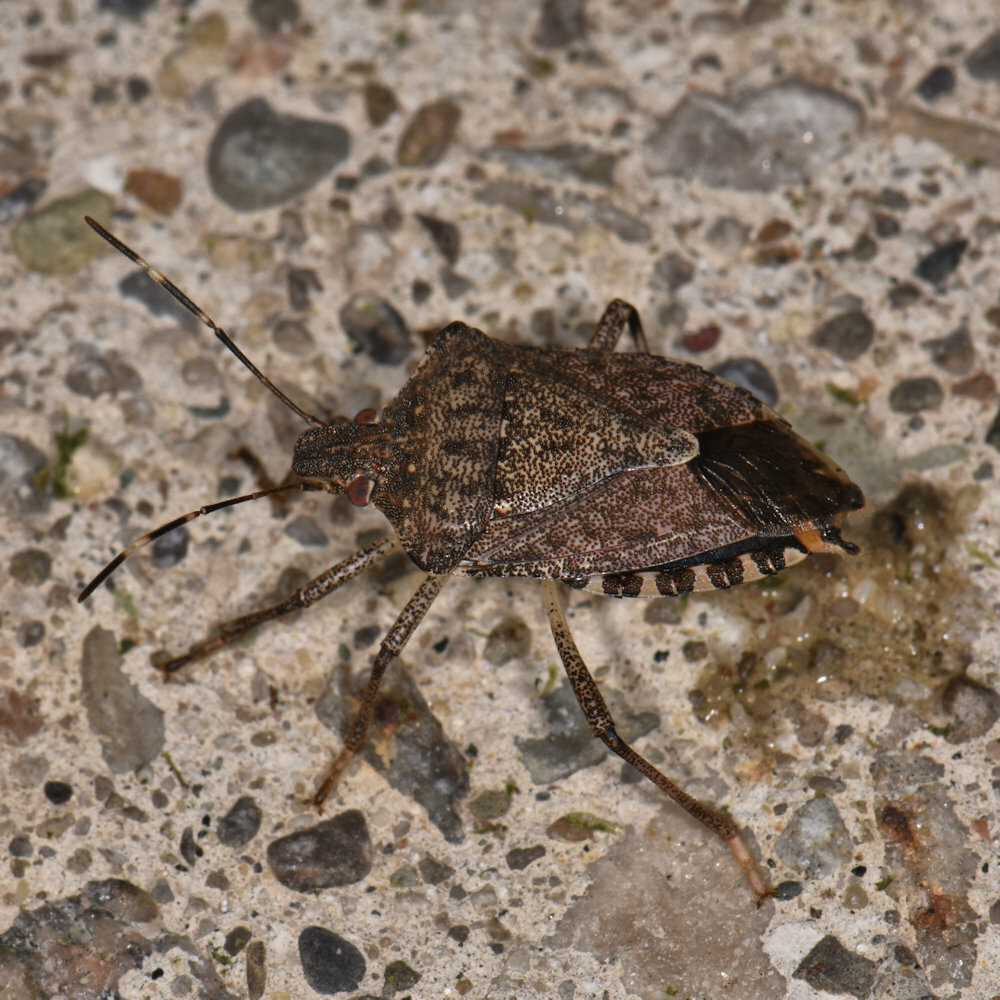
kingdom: Animalia
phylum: Arthropoda
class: Insecta
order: Hemiptera
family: Pentatomidae
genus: Halyomorpha
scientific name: Halyomorpha halys
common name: Brown marmorated stink bug
